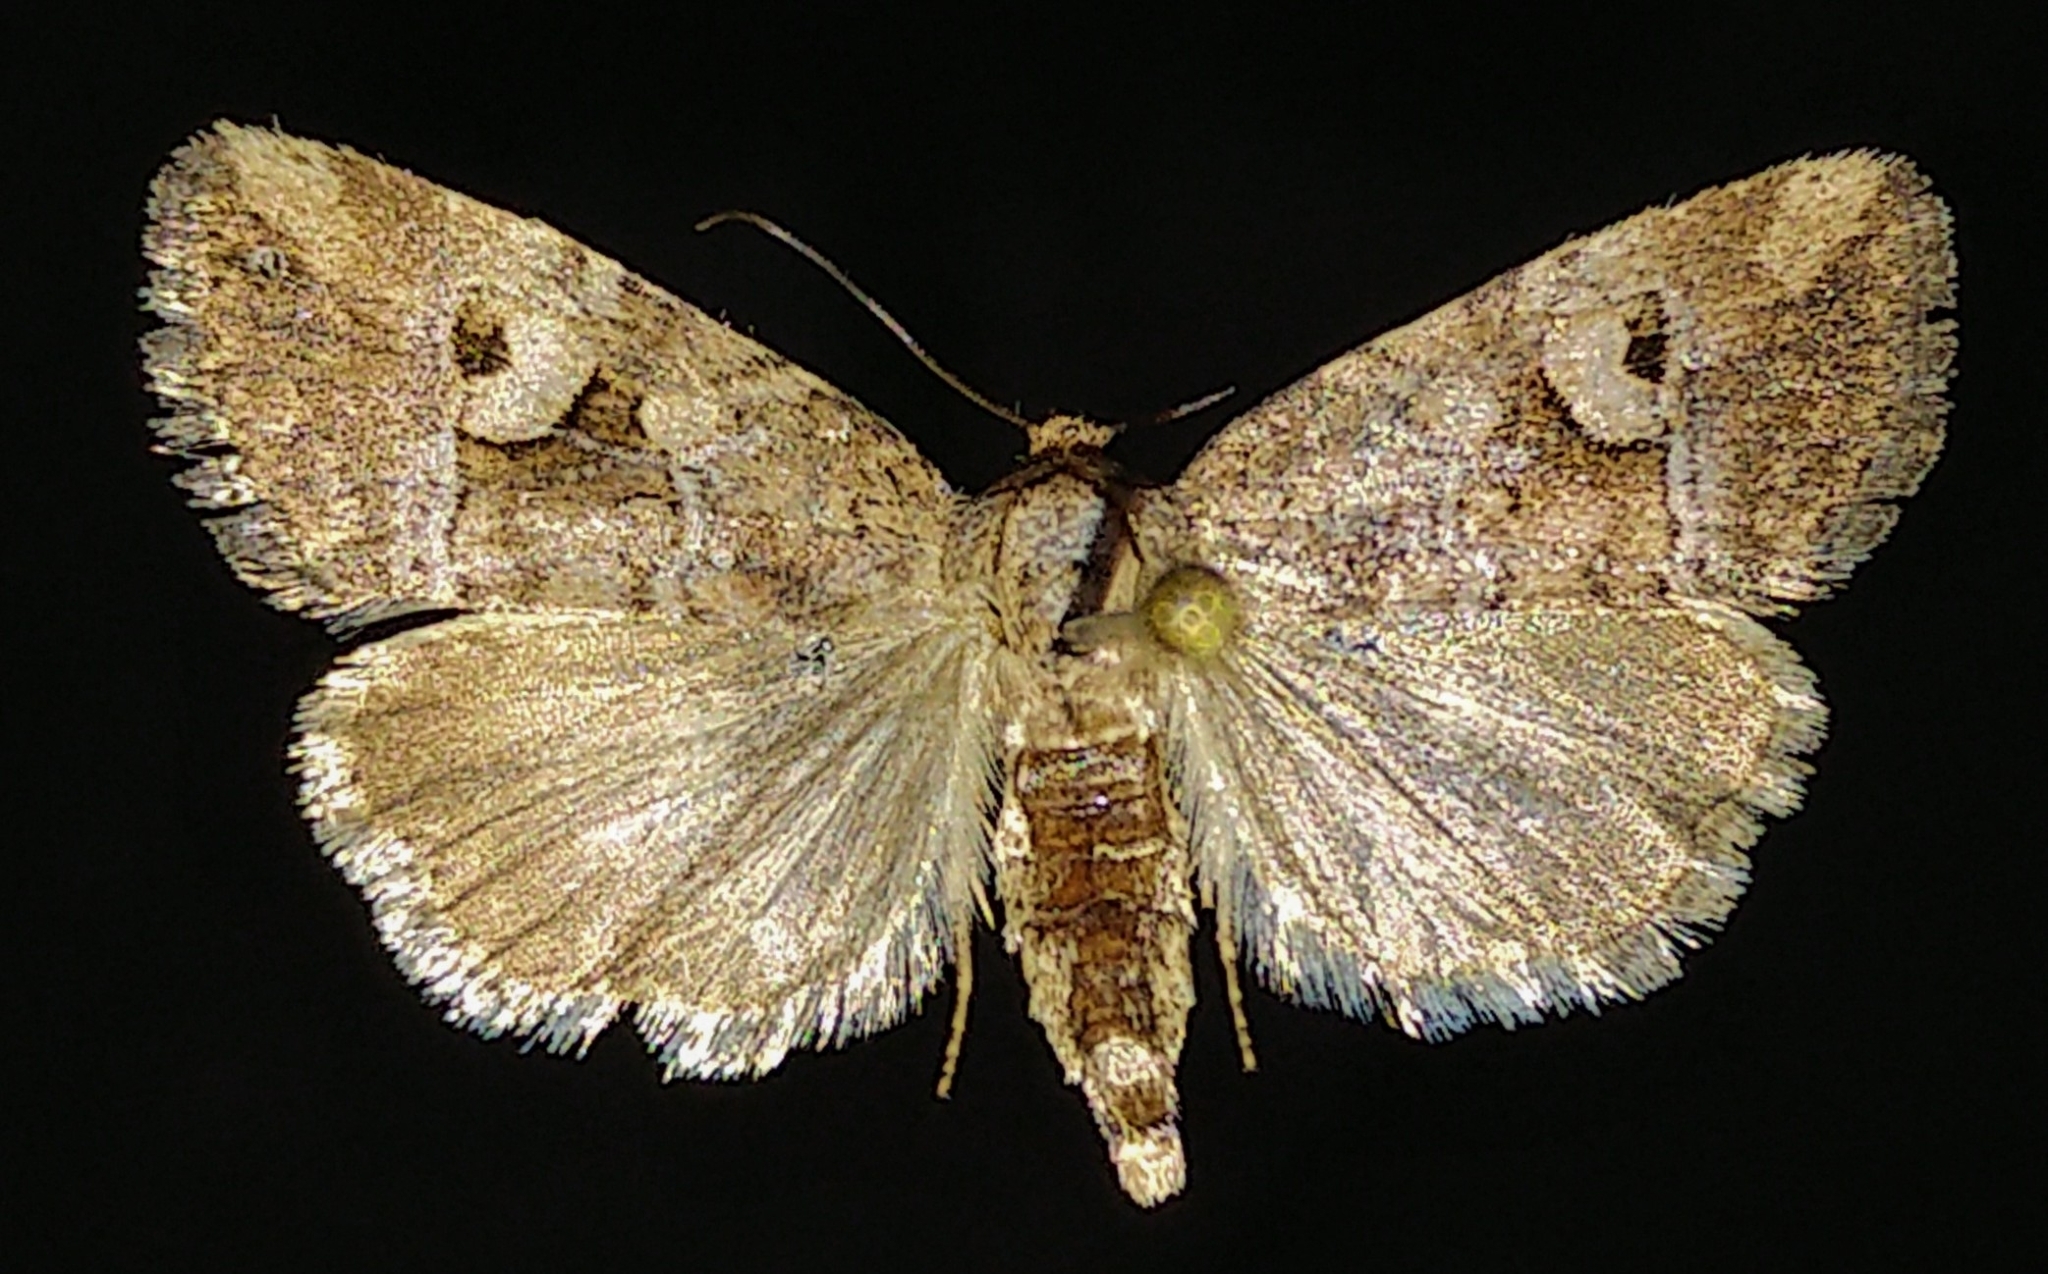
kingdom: Animalia
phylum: Arthropoda
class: Insecta
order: Lepidoptera
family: Noctuidae
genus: Elaphria
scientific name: Elaphria alapallida
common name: Pale-winged midget
